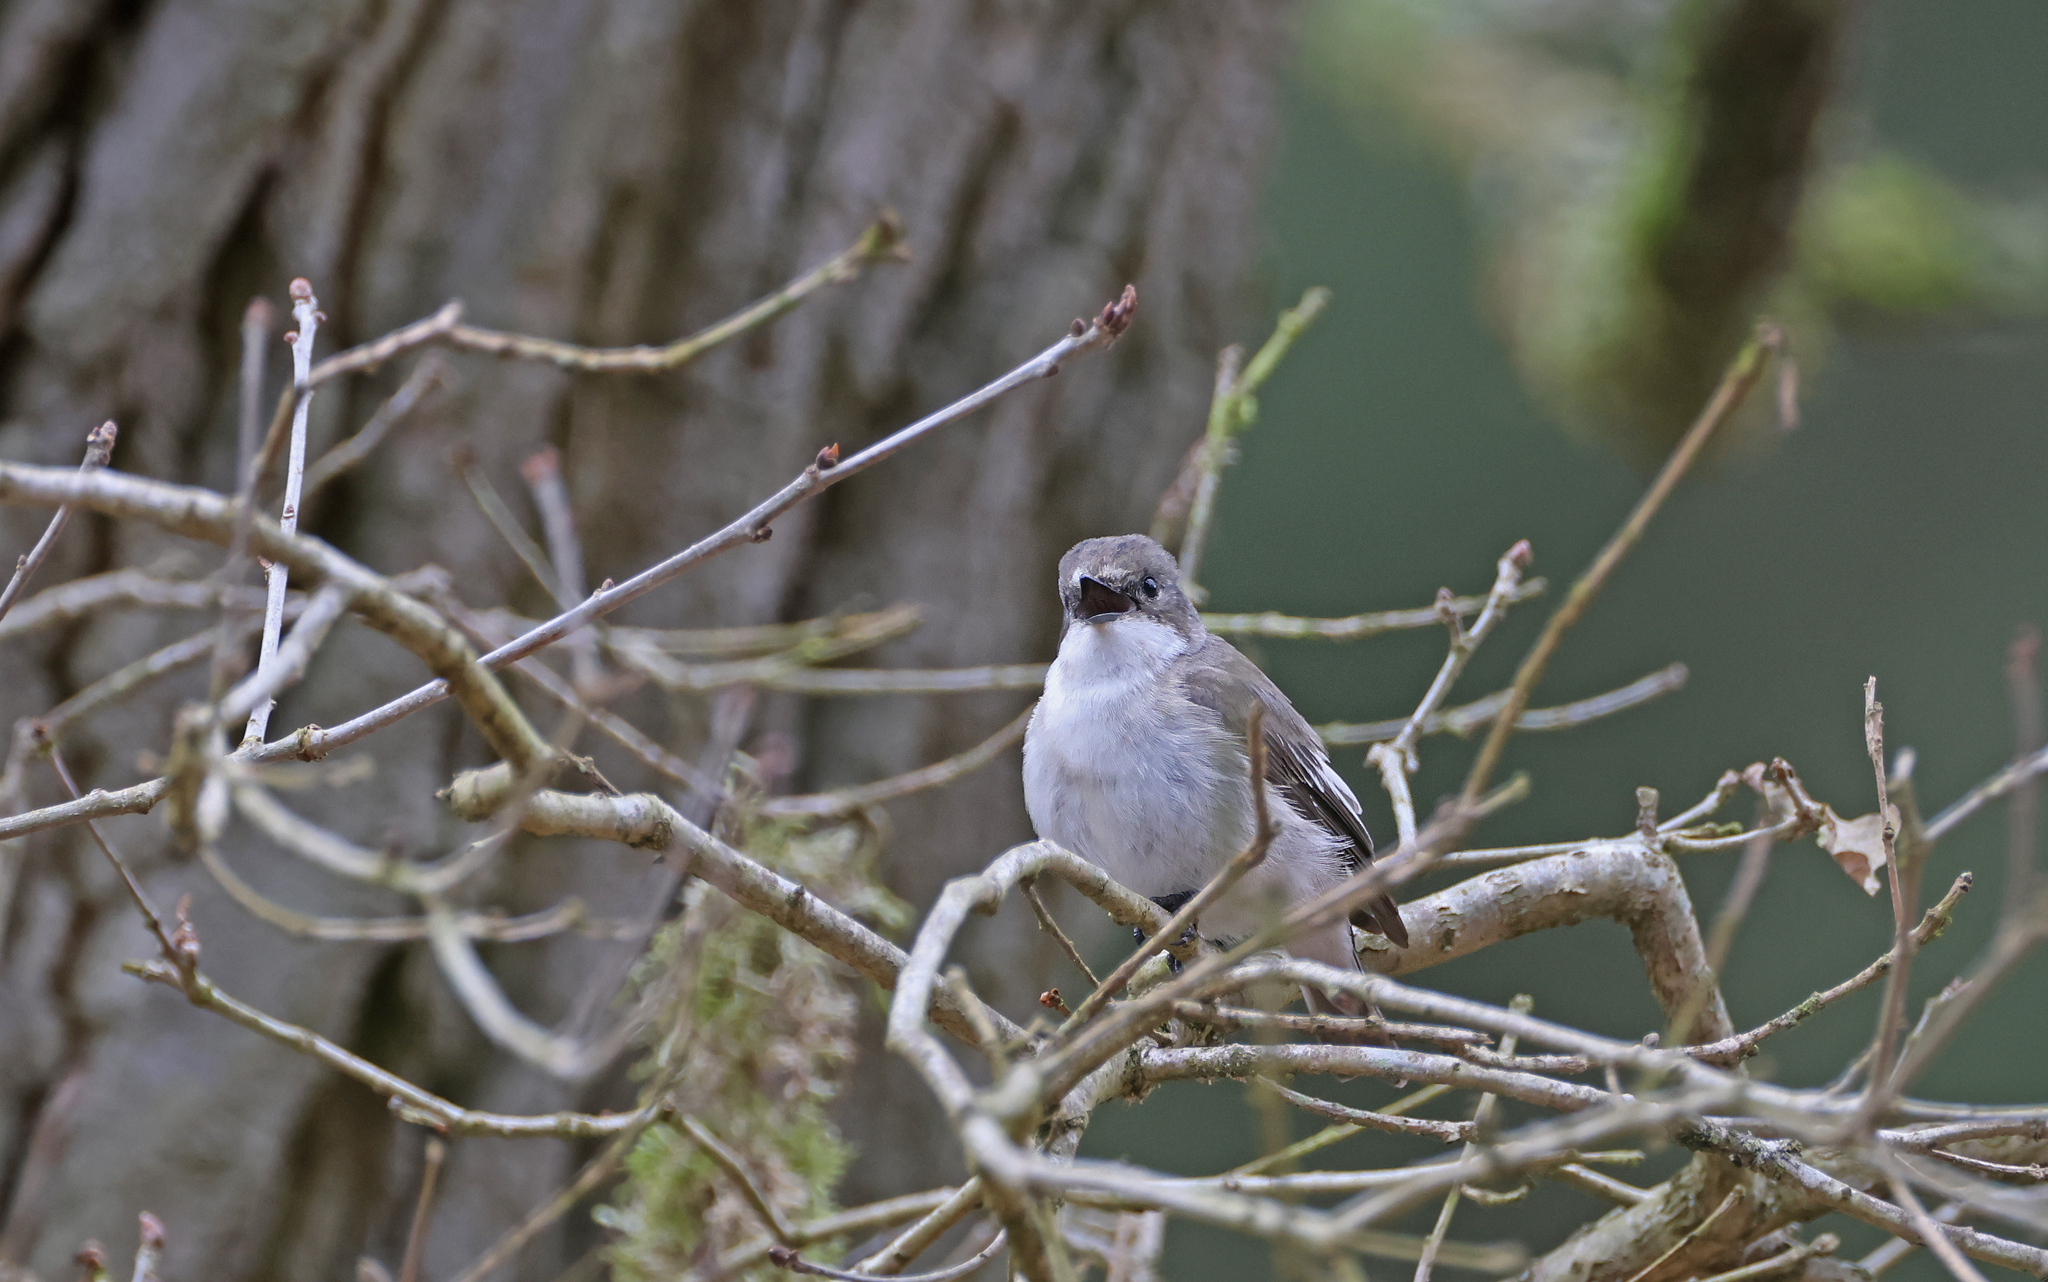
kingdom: Animalia
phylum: Chordata
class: Aves
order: Passeriformes
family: Muscicapidae
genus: Ficedula
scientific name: Ficedula hypoleuca
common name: European pied flycatcher
